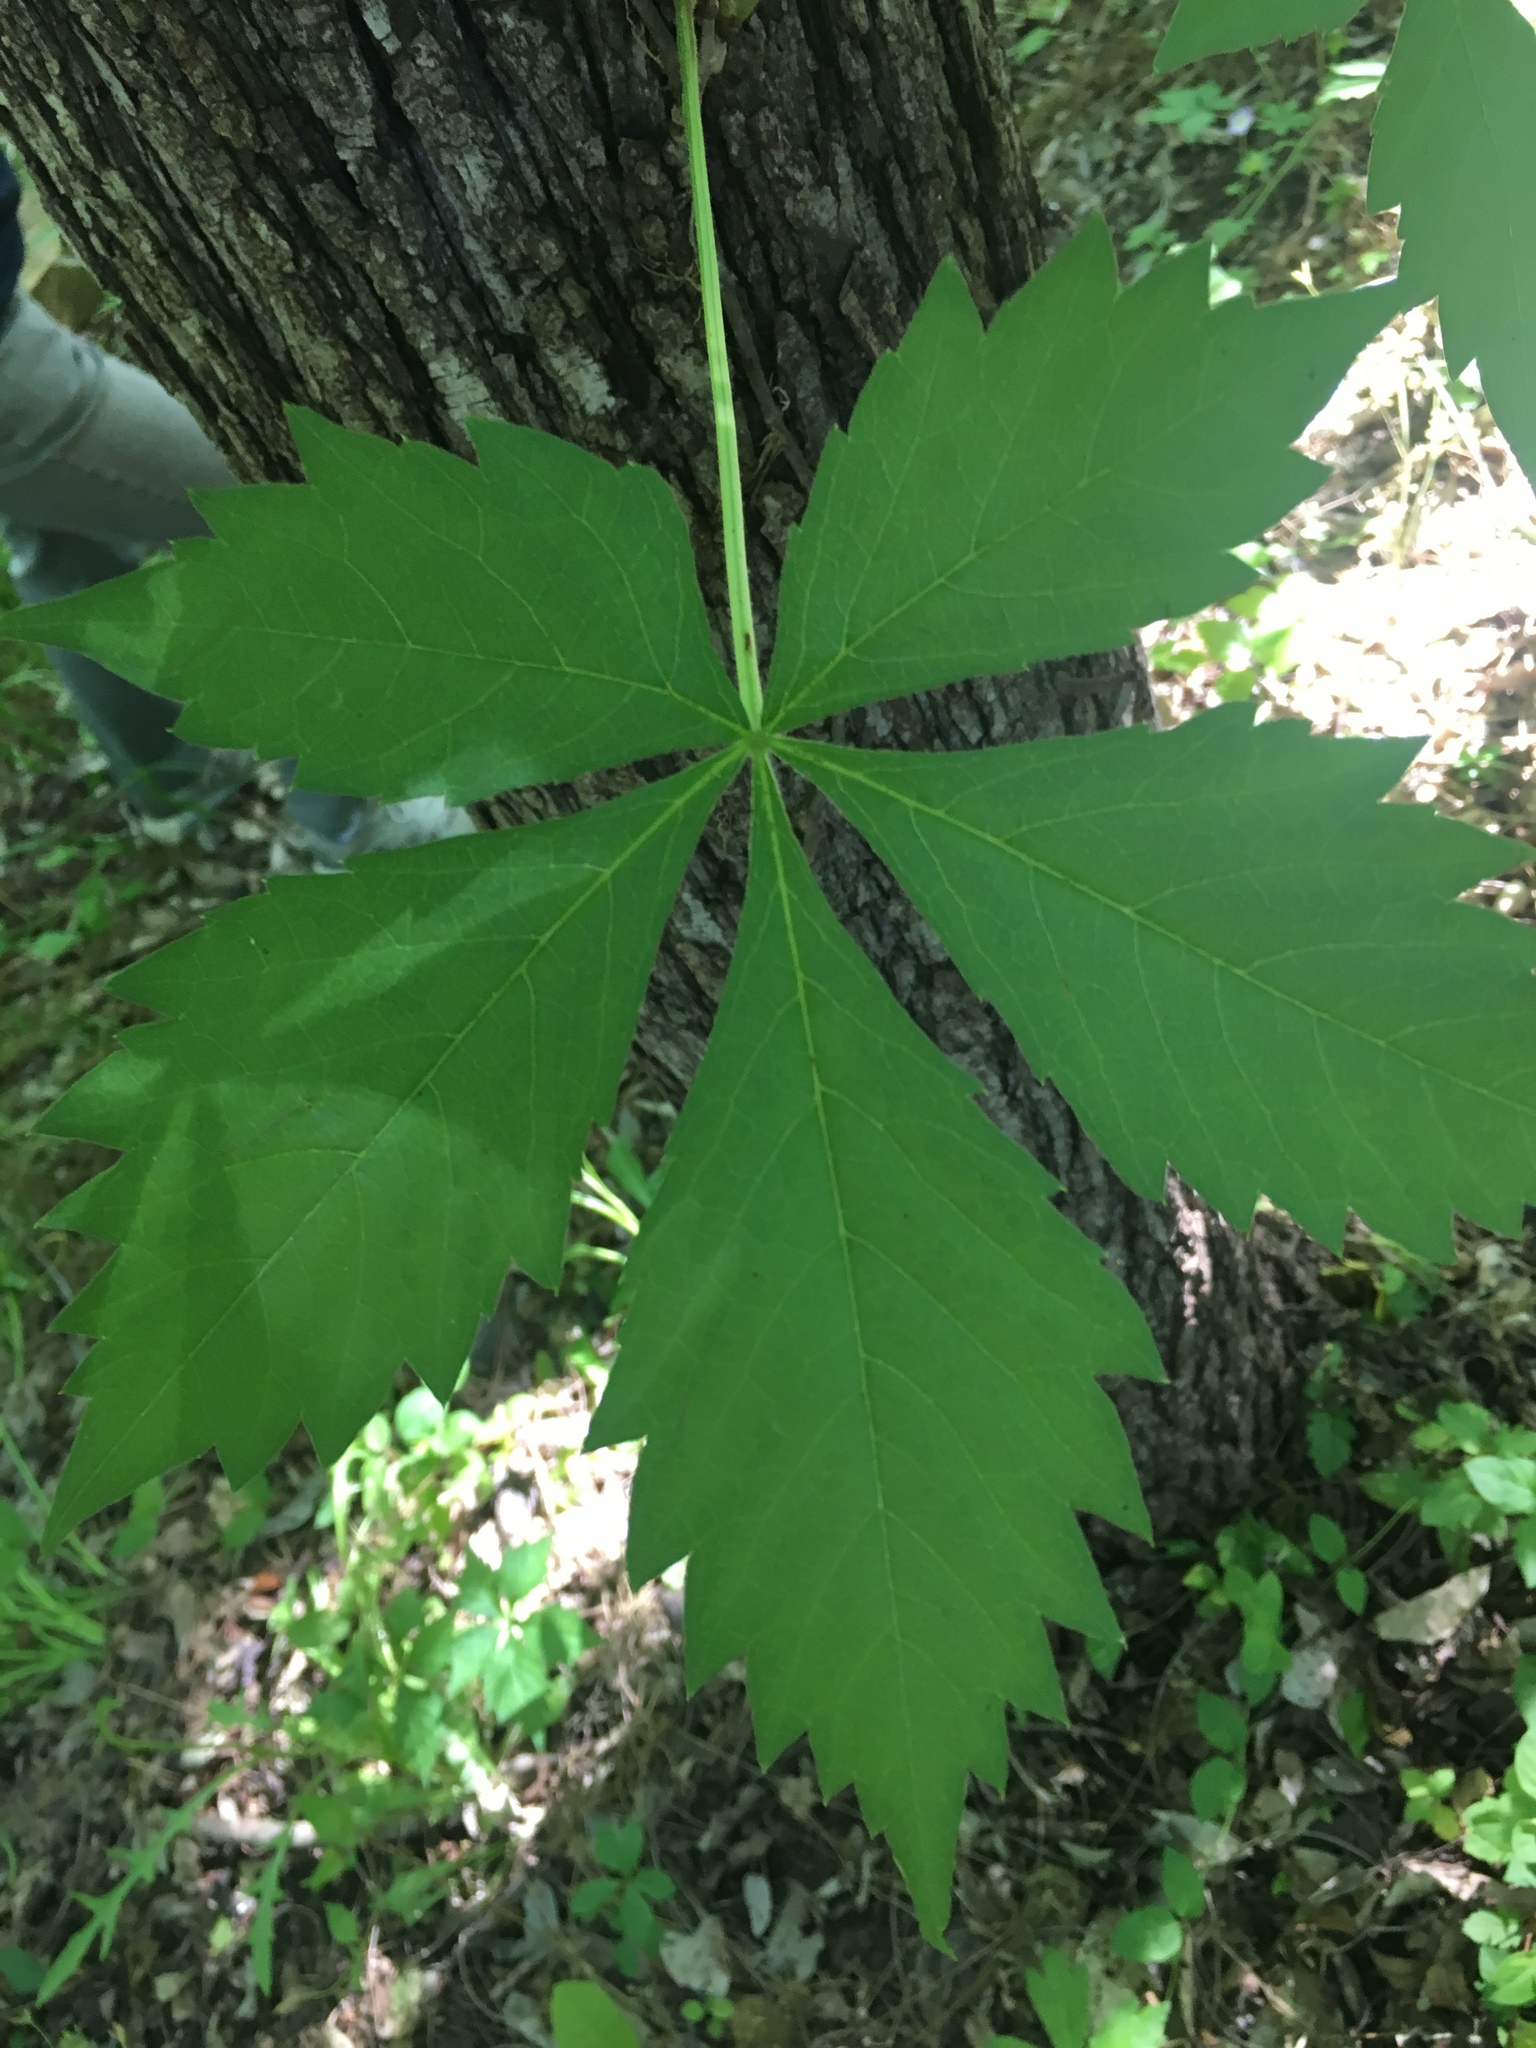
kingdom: Plantae
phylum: Tracheophyta
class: Magnoliopsida
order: Vitales
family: Vitaceae
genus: Parthenocissus
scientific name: Parthenocissus quinquefolia
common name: Virginia-creeper
